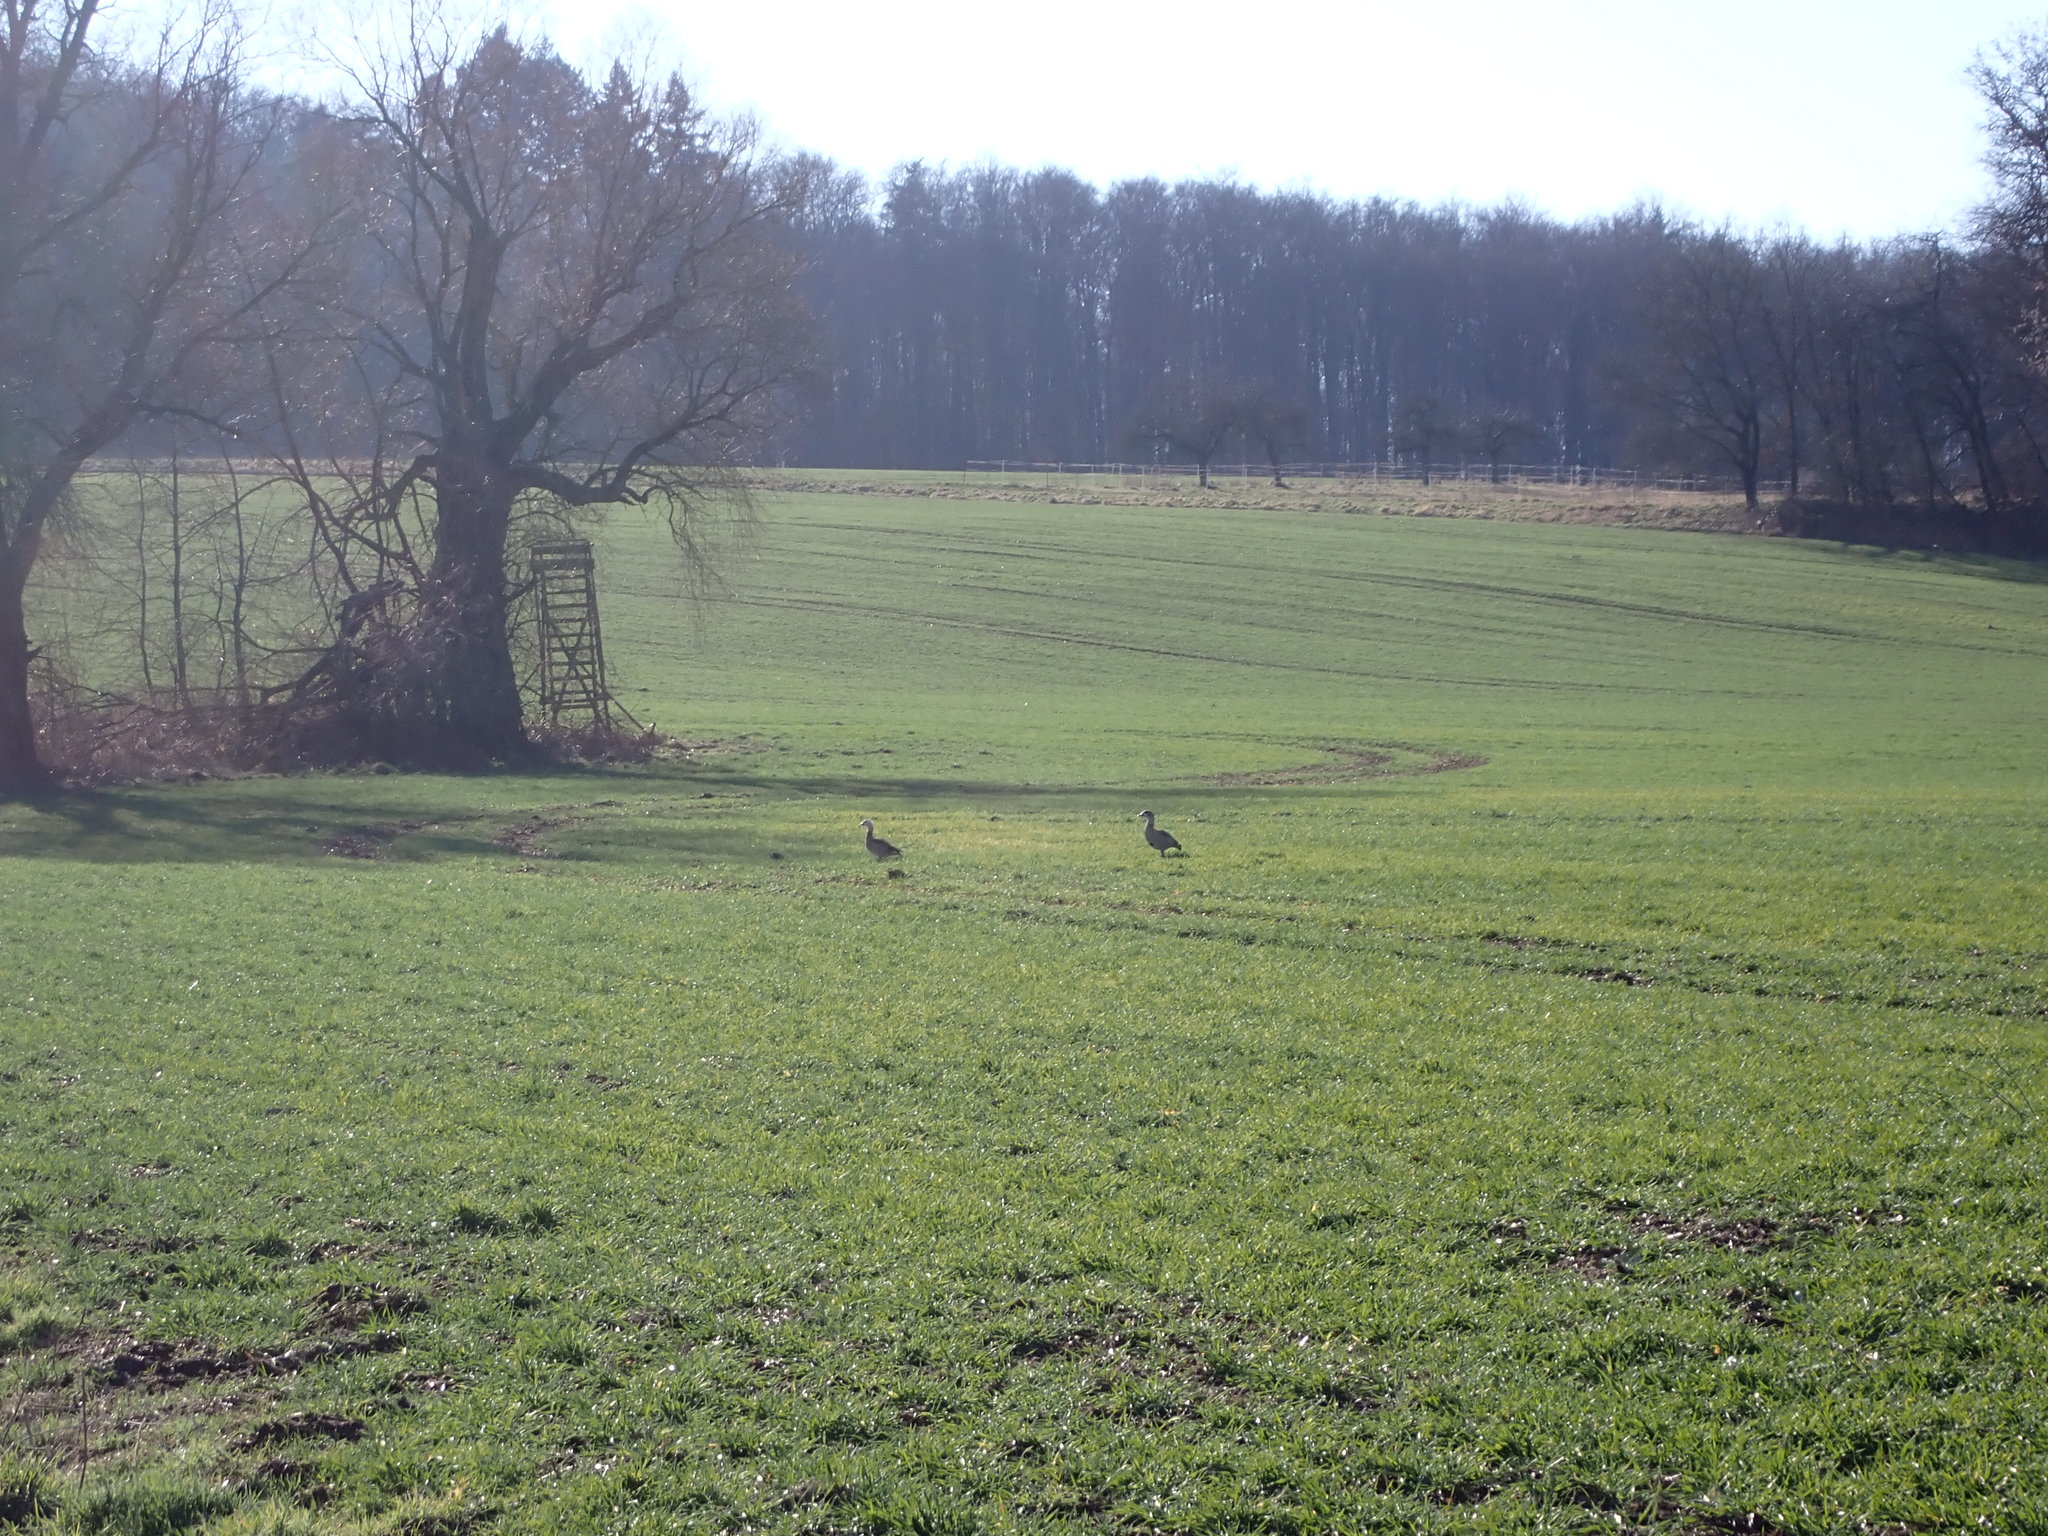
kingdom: Animalia
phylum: Chordata
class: Aves
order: Anseriformes
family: Anatidae
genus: Alopochen
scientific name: Alopochen aegyptiaca
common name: Egyptian goose
